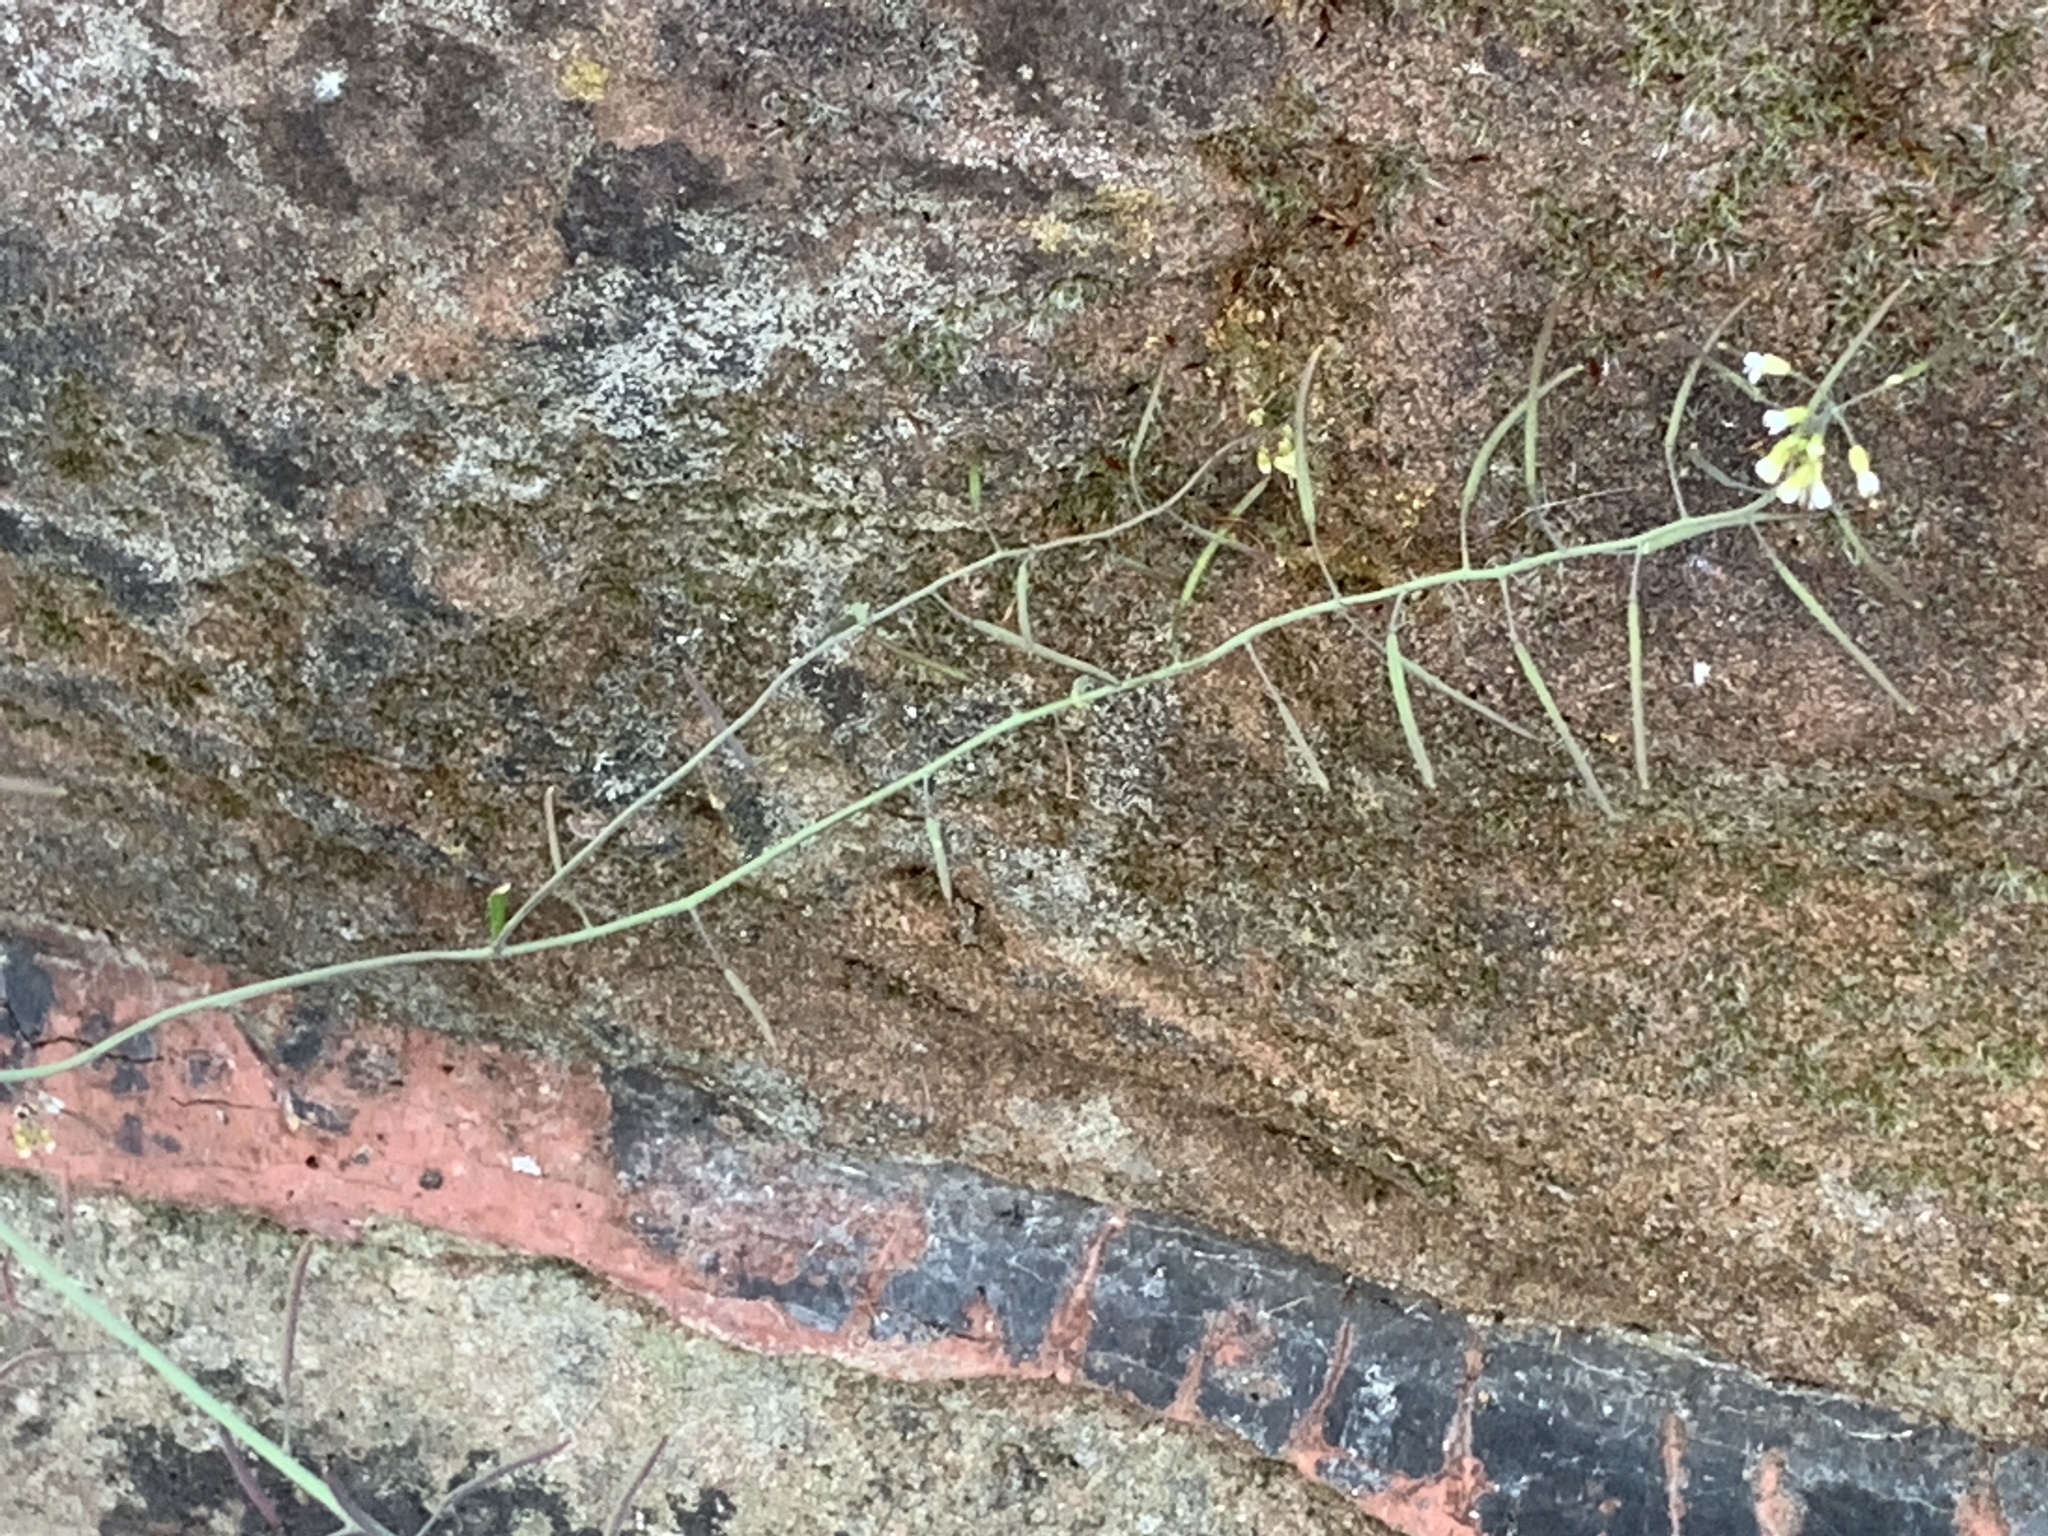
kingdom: Plantae
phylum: Tracheophyta
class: Magnoliopsida
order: Brassicales
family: Brassicaceae
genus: Arabidopsis
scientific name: Arabidopsis thaliana
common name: Thale cress
